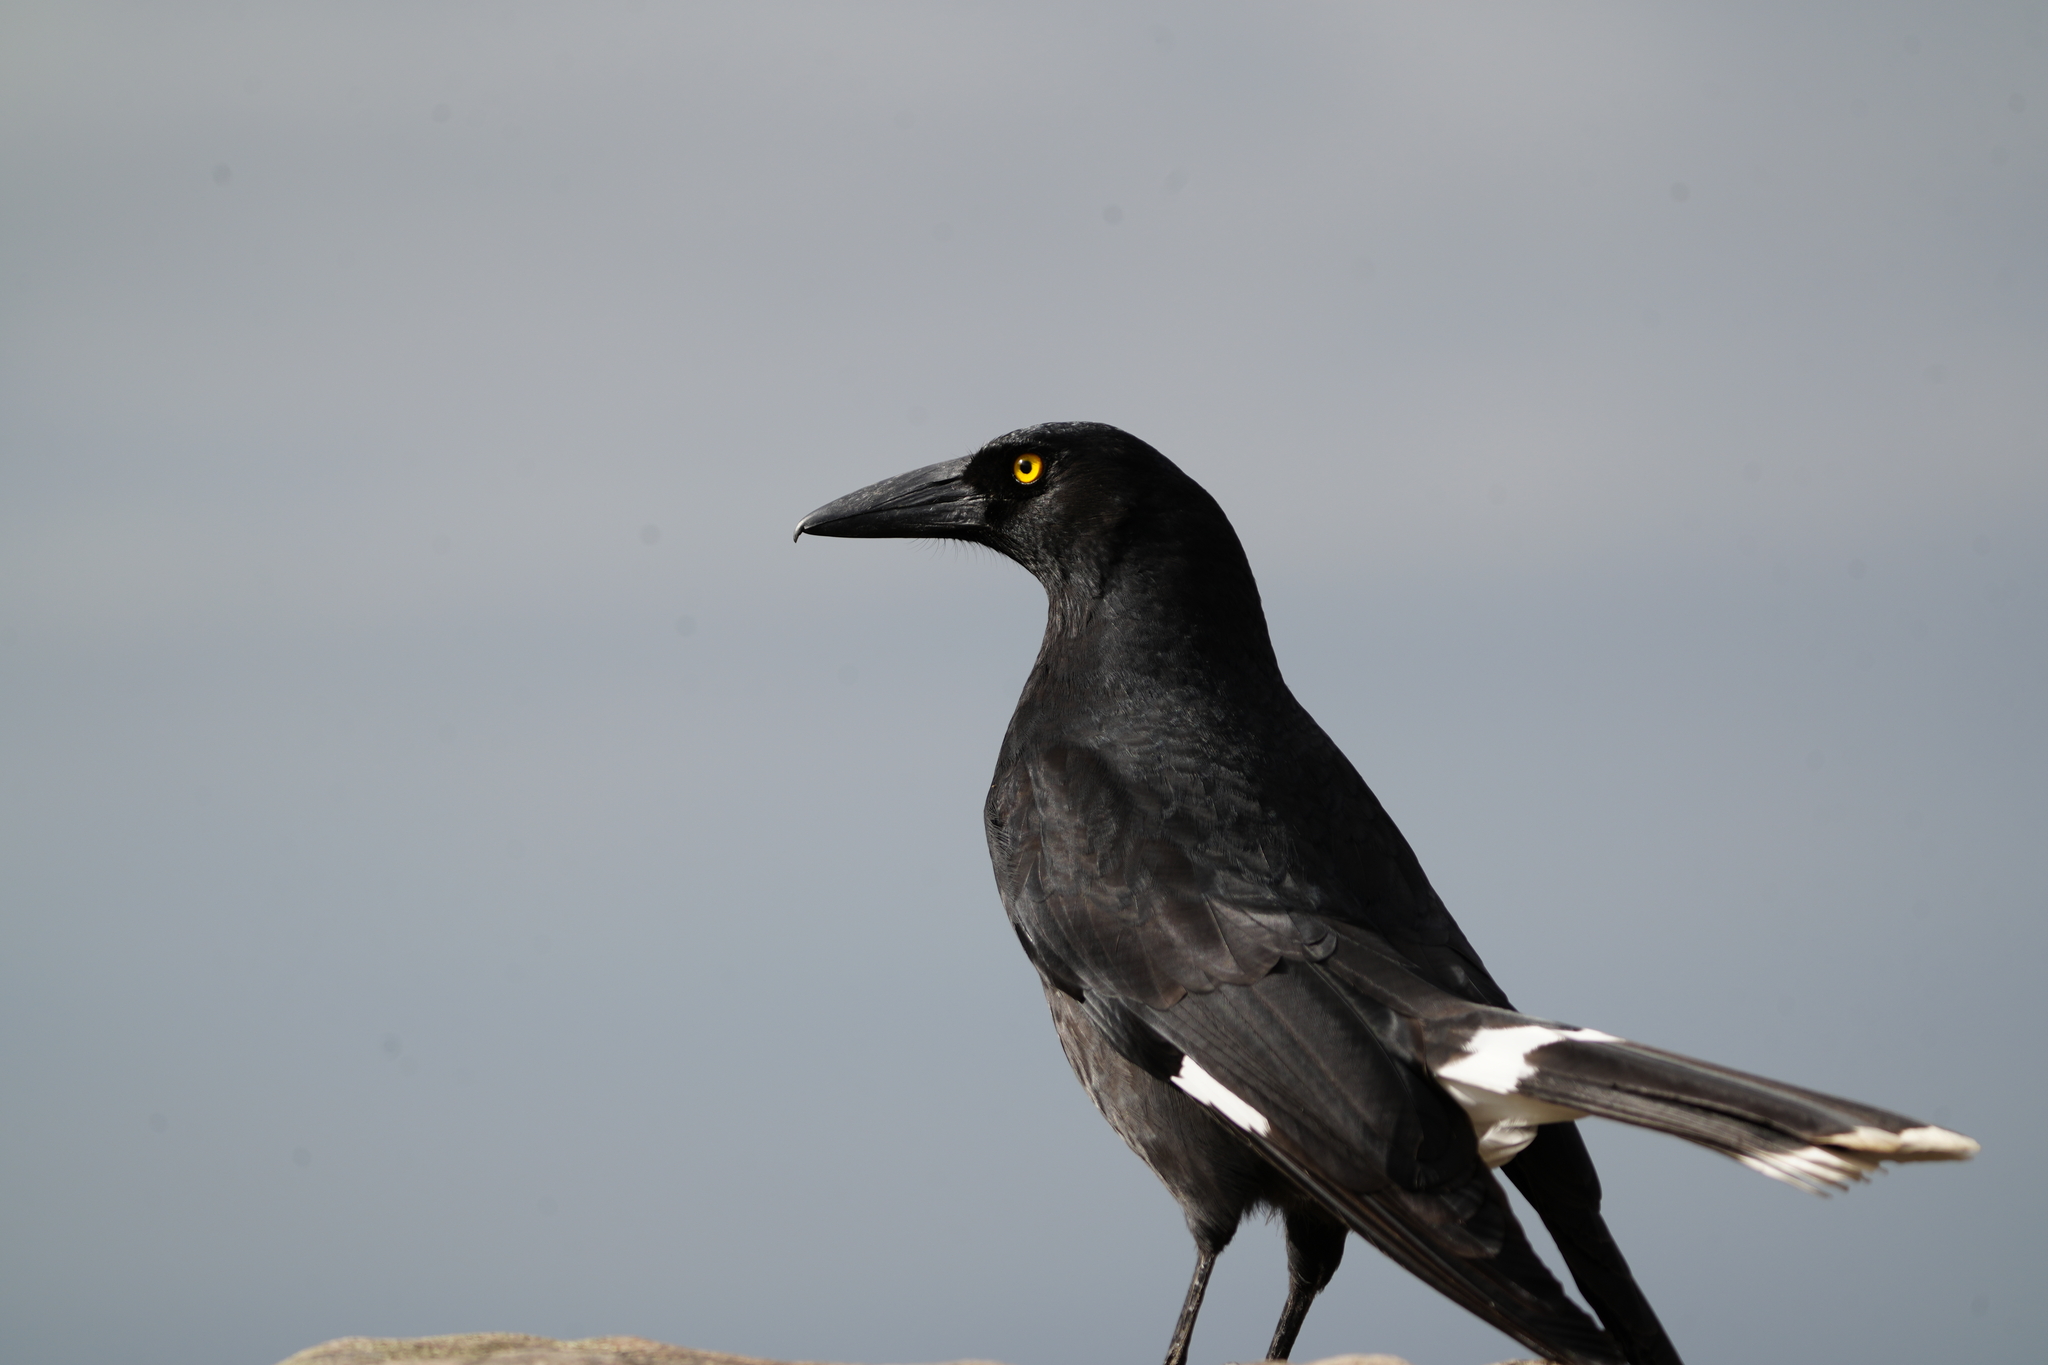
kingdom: Animalia
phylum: Chordata
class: Aves
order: Passeriformes
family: Cracticidae
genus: Strepera
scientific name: Strepera graculina
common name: Pied currawong
